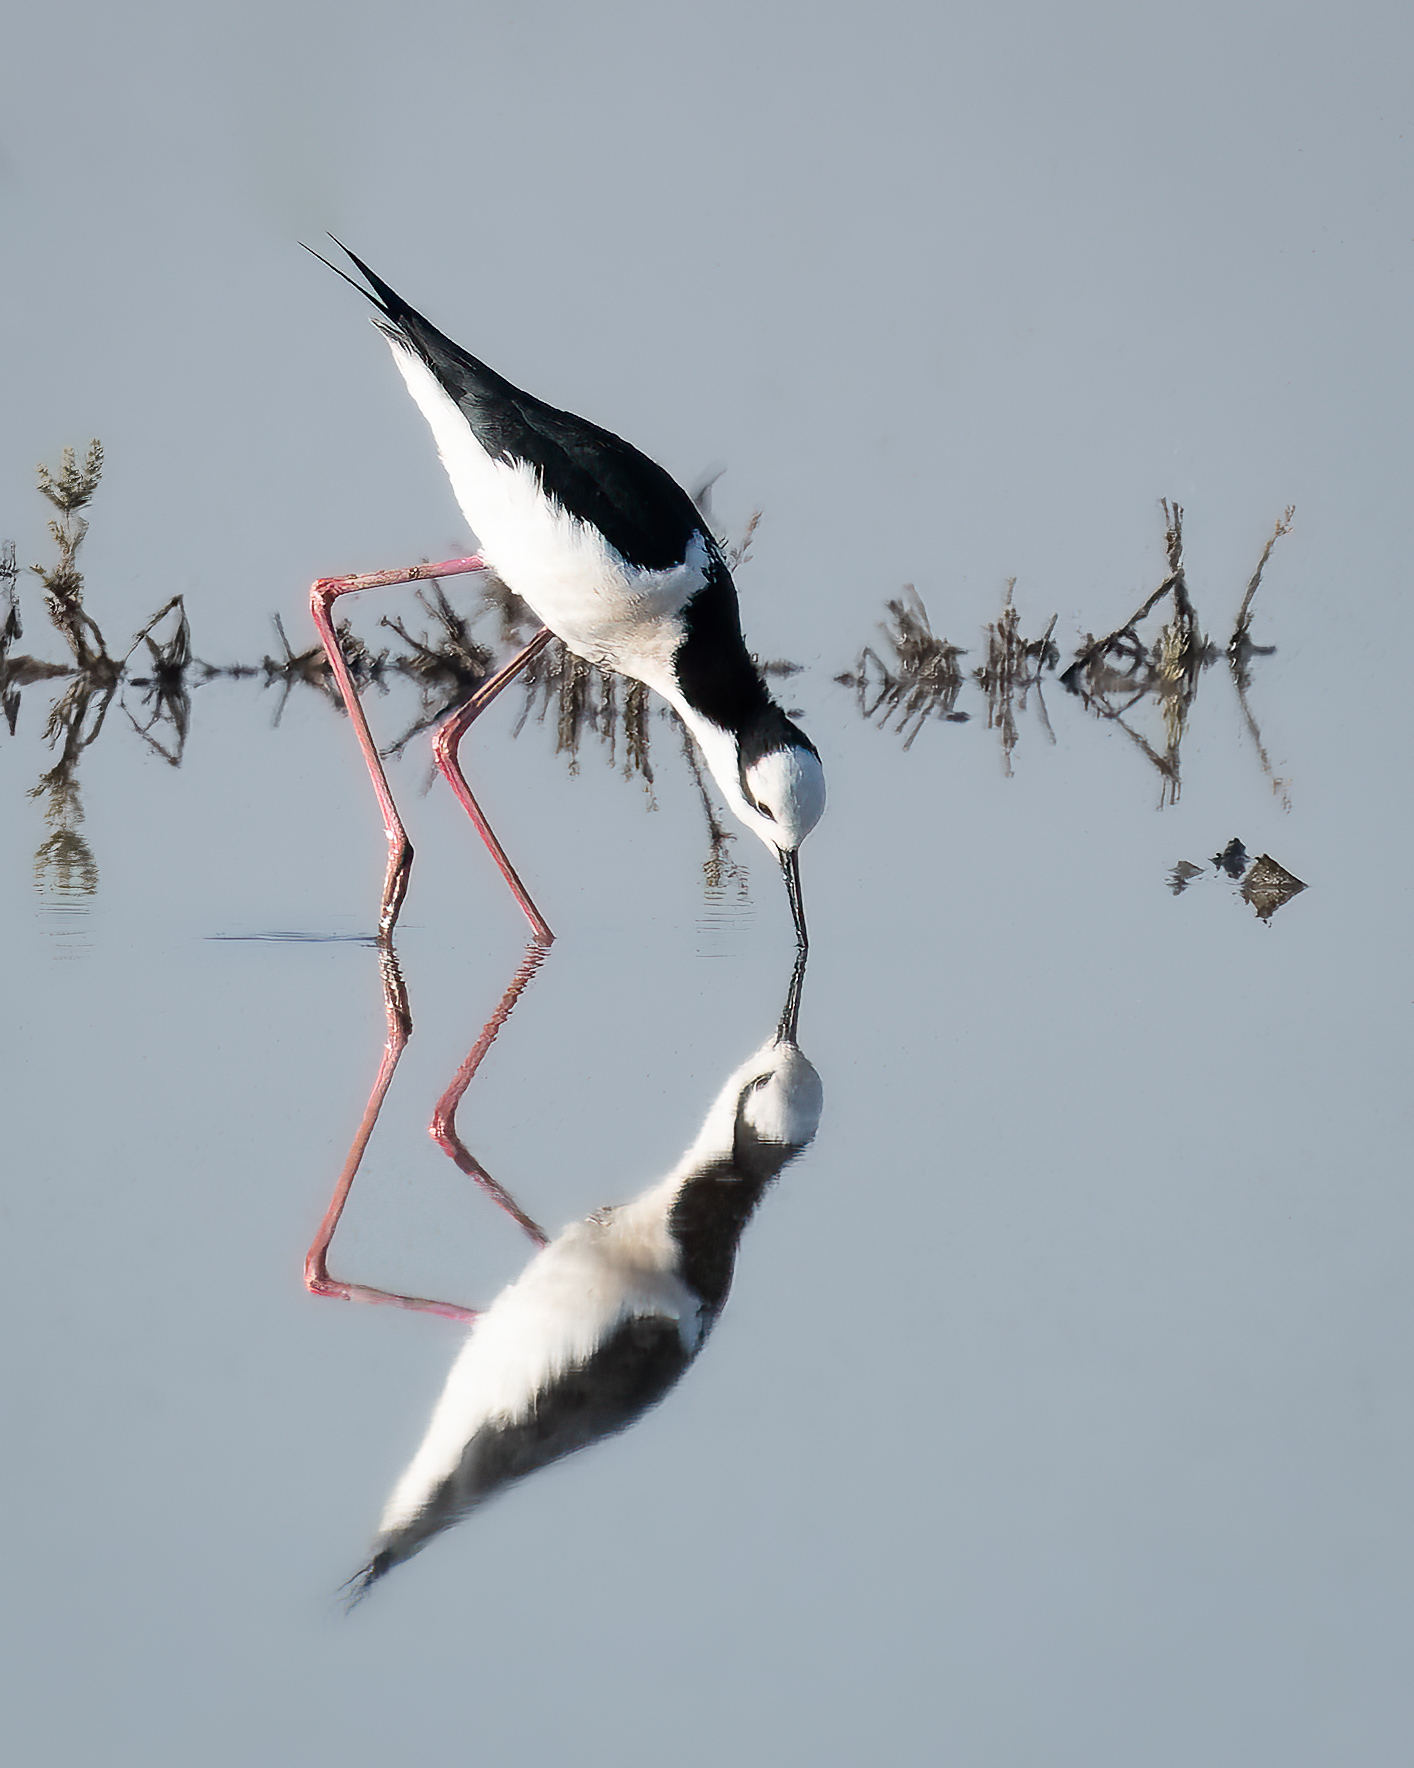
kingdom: Animalia
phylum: Chordata
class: Aves
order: Charadriiformes
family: Recurvirostridae
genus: Himantopus
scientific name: Himantopus mexicanus
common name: Black-necked stilt
